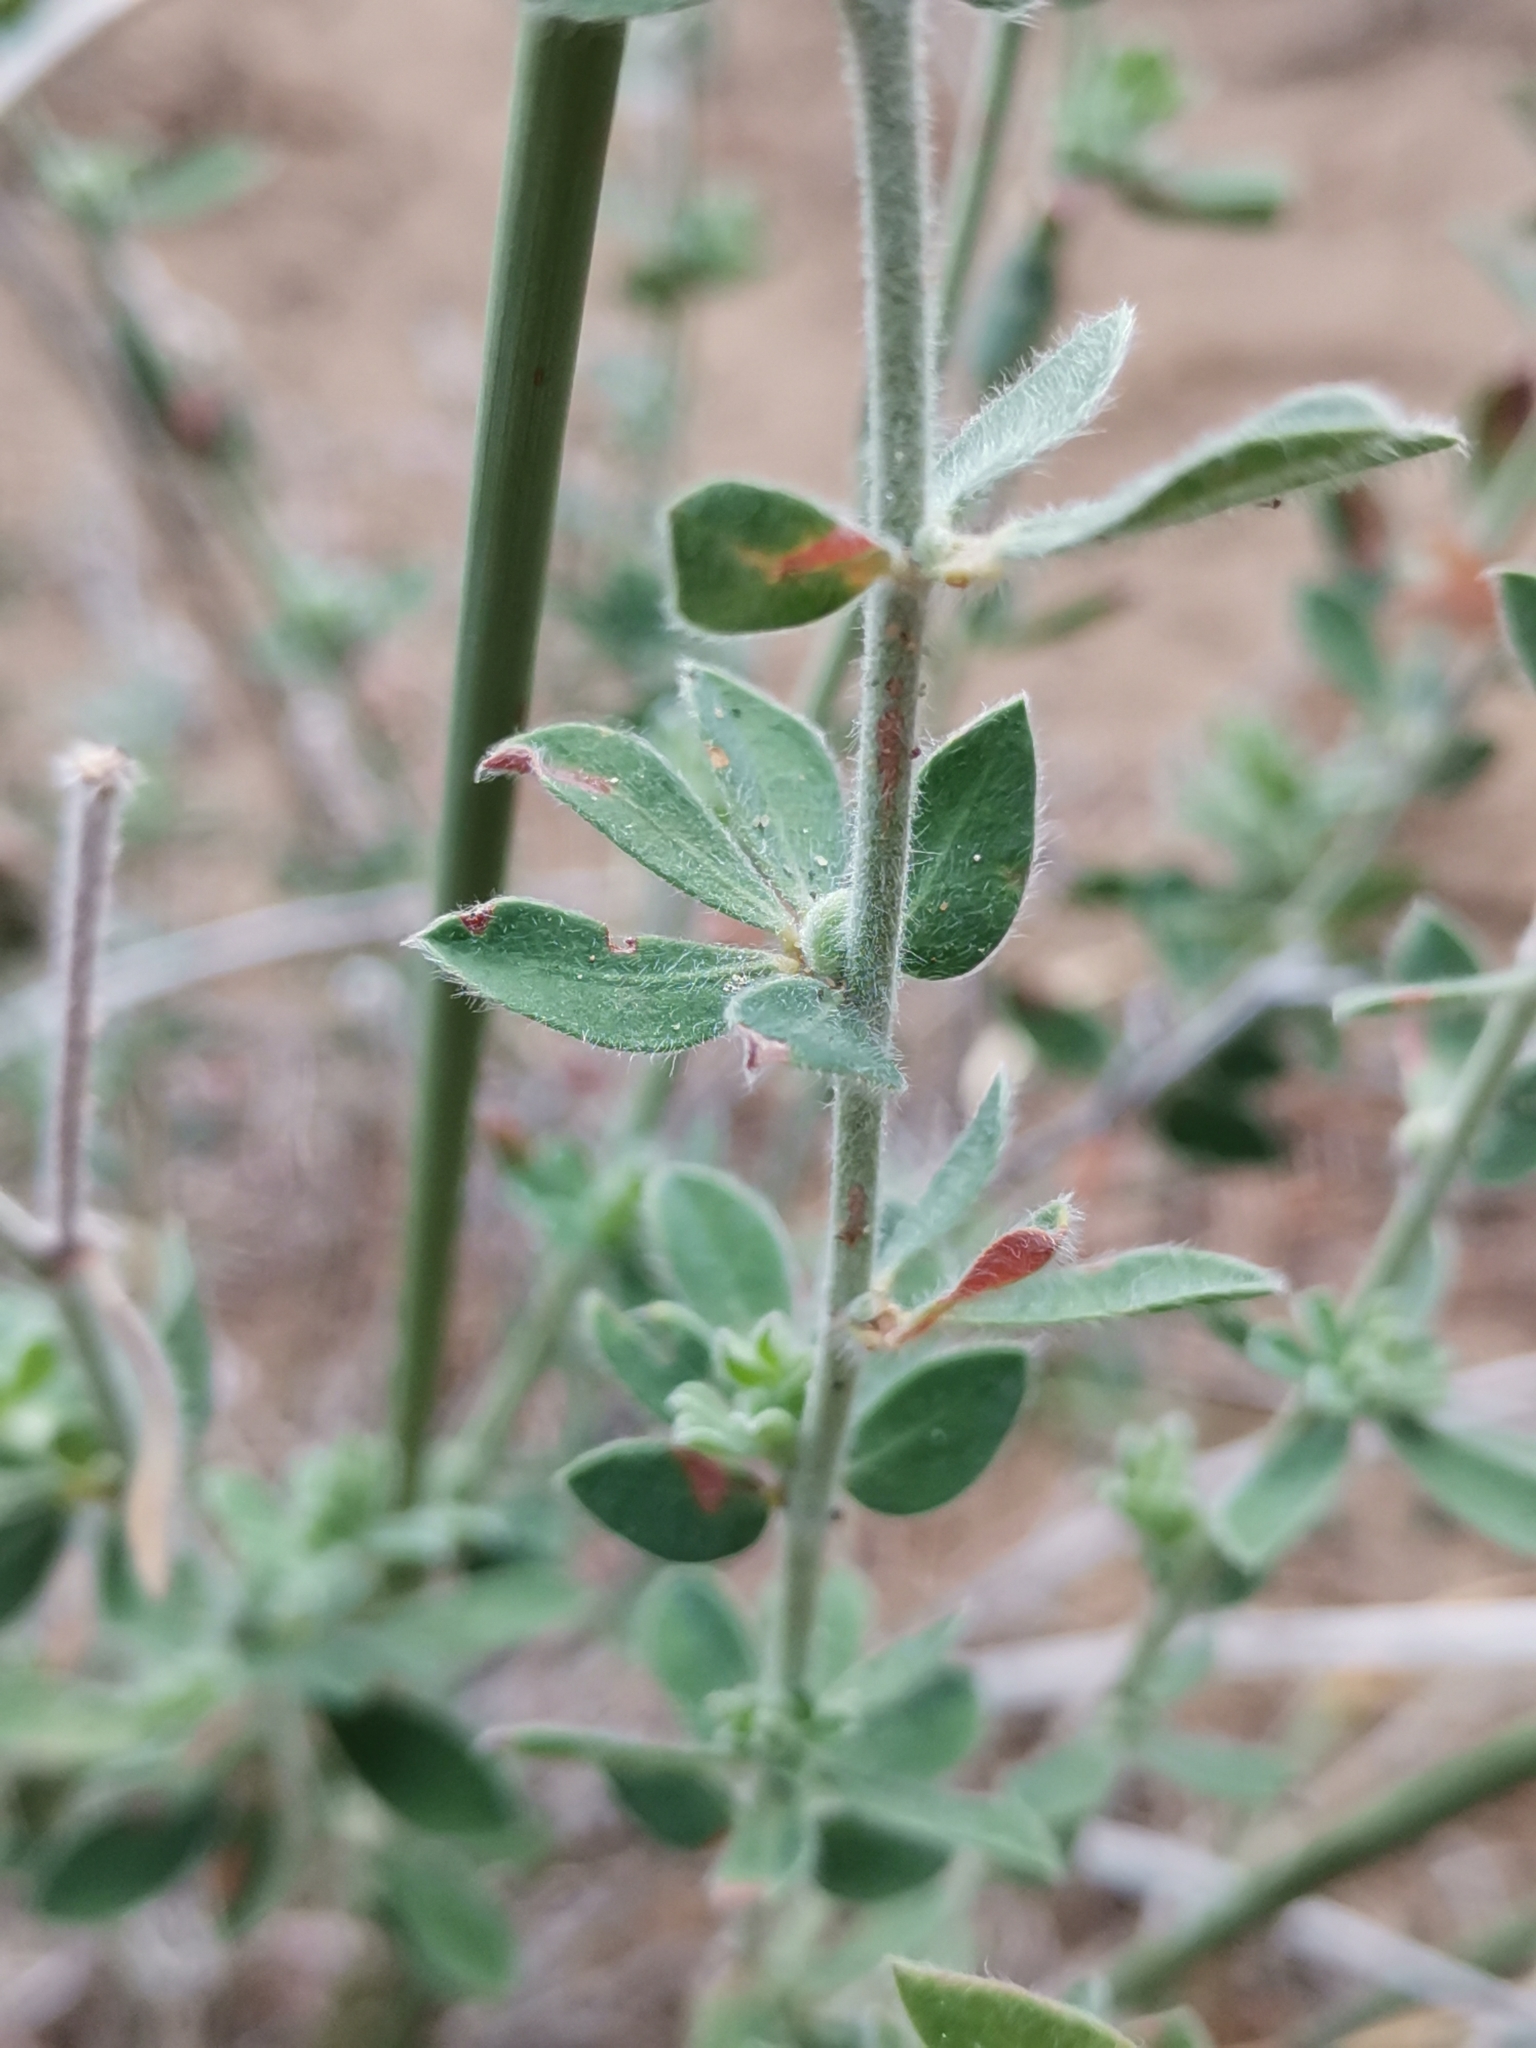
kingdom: Plantae
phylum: Tracheophyta
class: Magnoliopsida
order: Fabales
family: Fabaceae
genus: Lotus
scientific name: Lotus hirsutus
